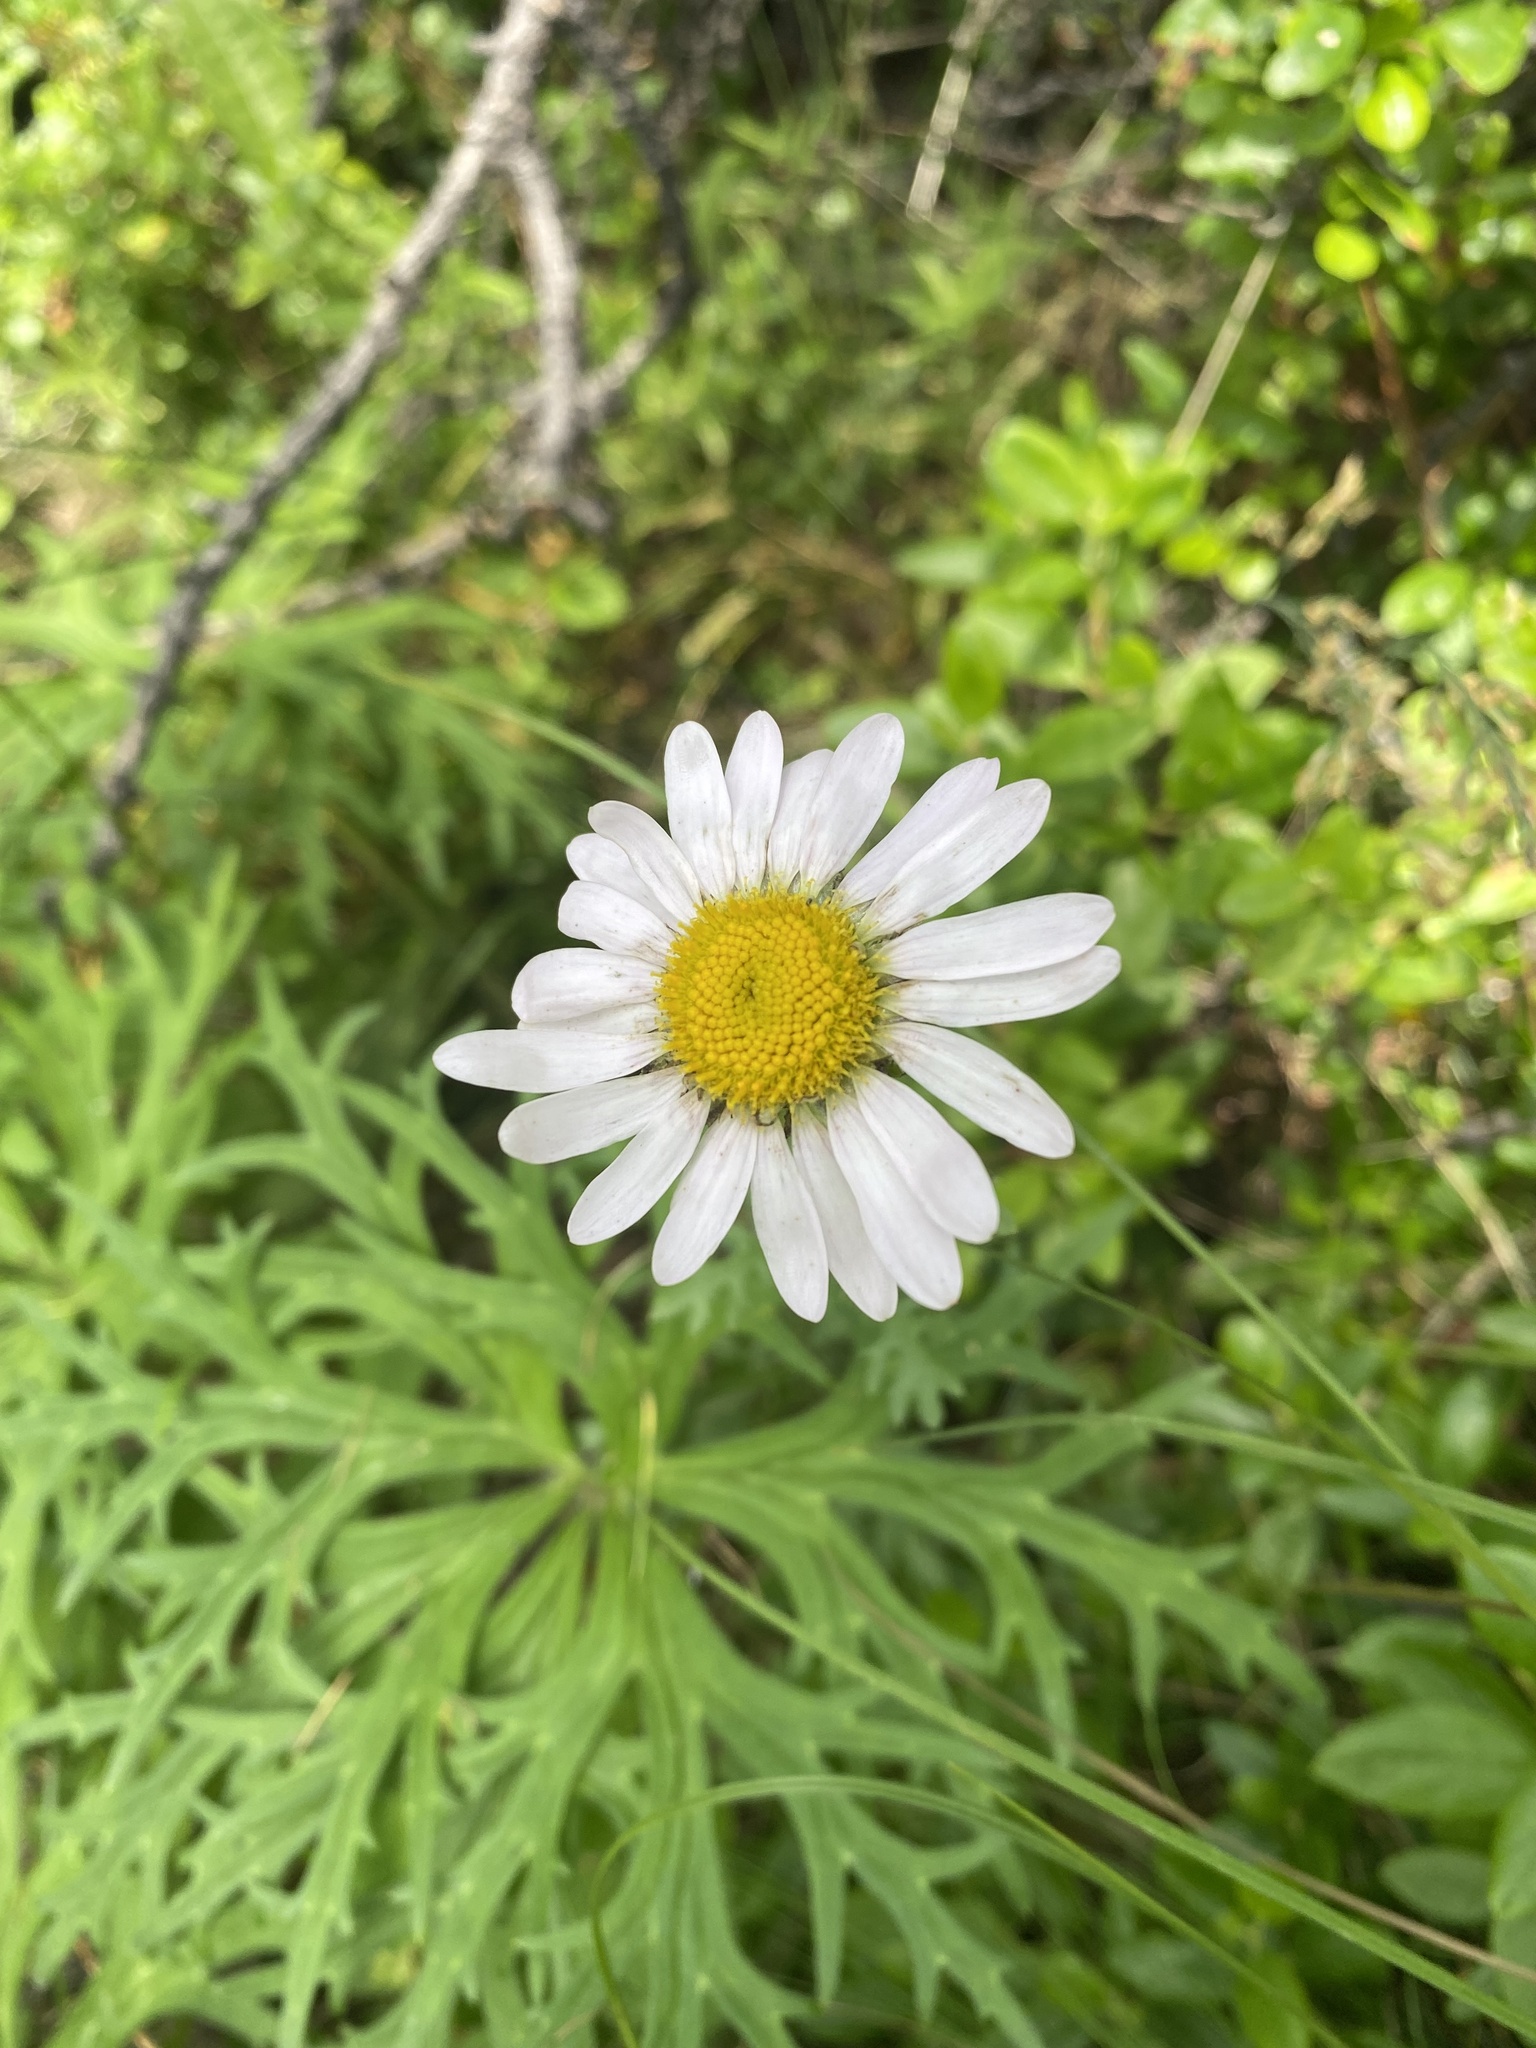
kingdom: Plantae
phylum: Tracheophyta
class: Magnoliopsida
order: Asterales
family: Asteraceae
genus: Chrysanthemum
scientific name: Chrysanthemum zawadzkii
